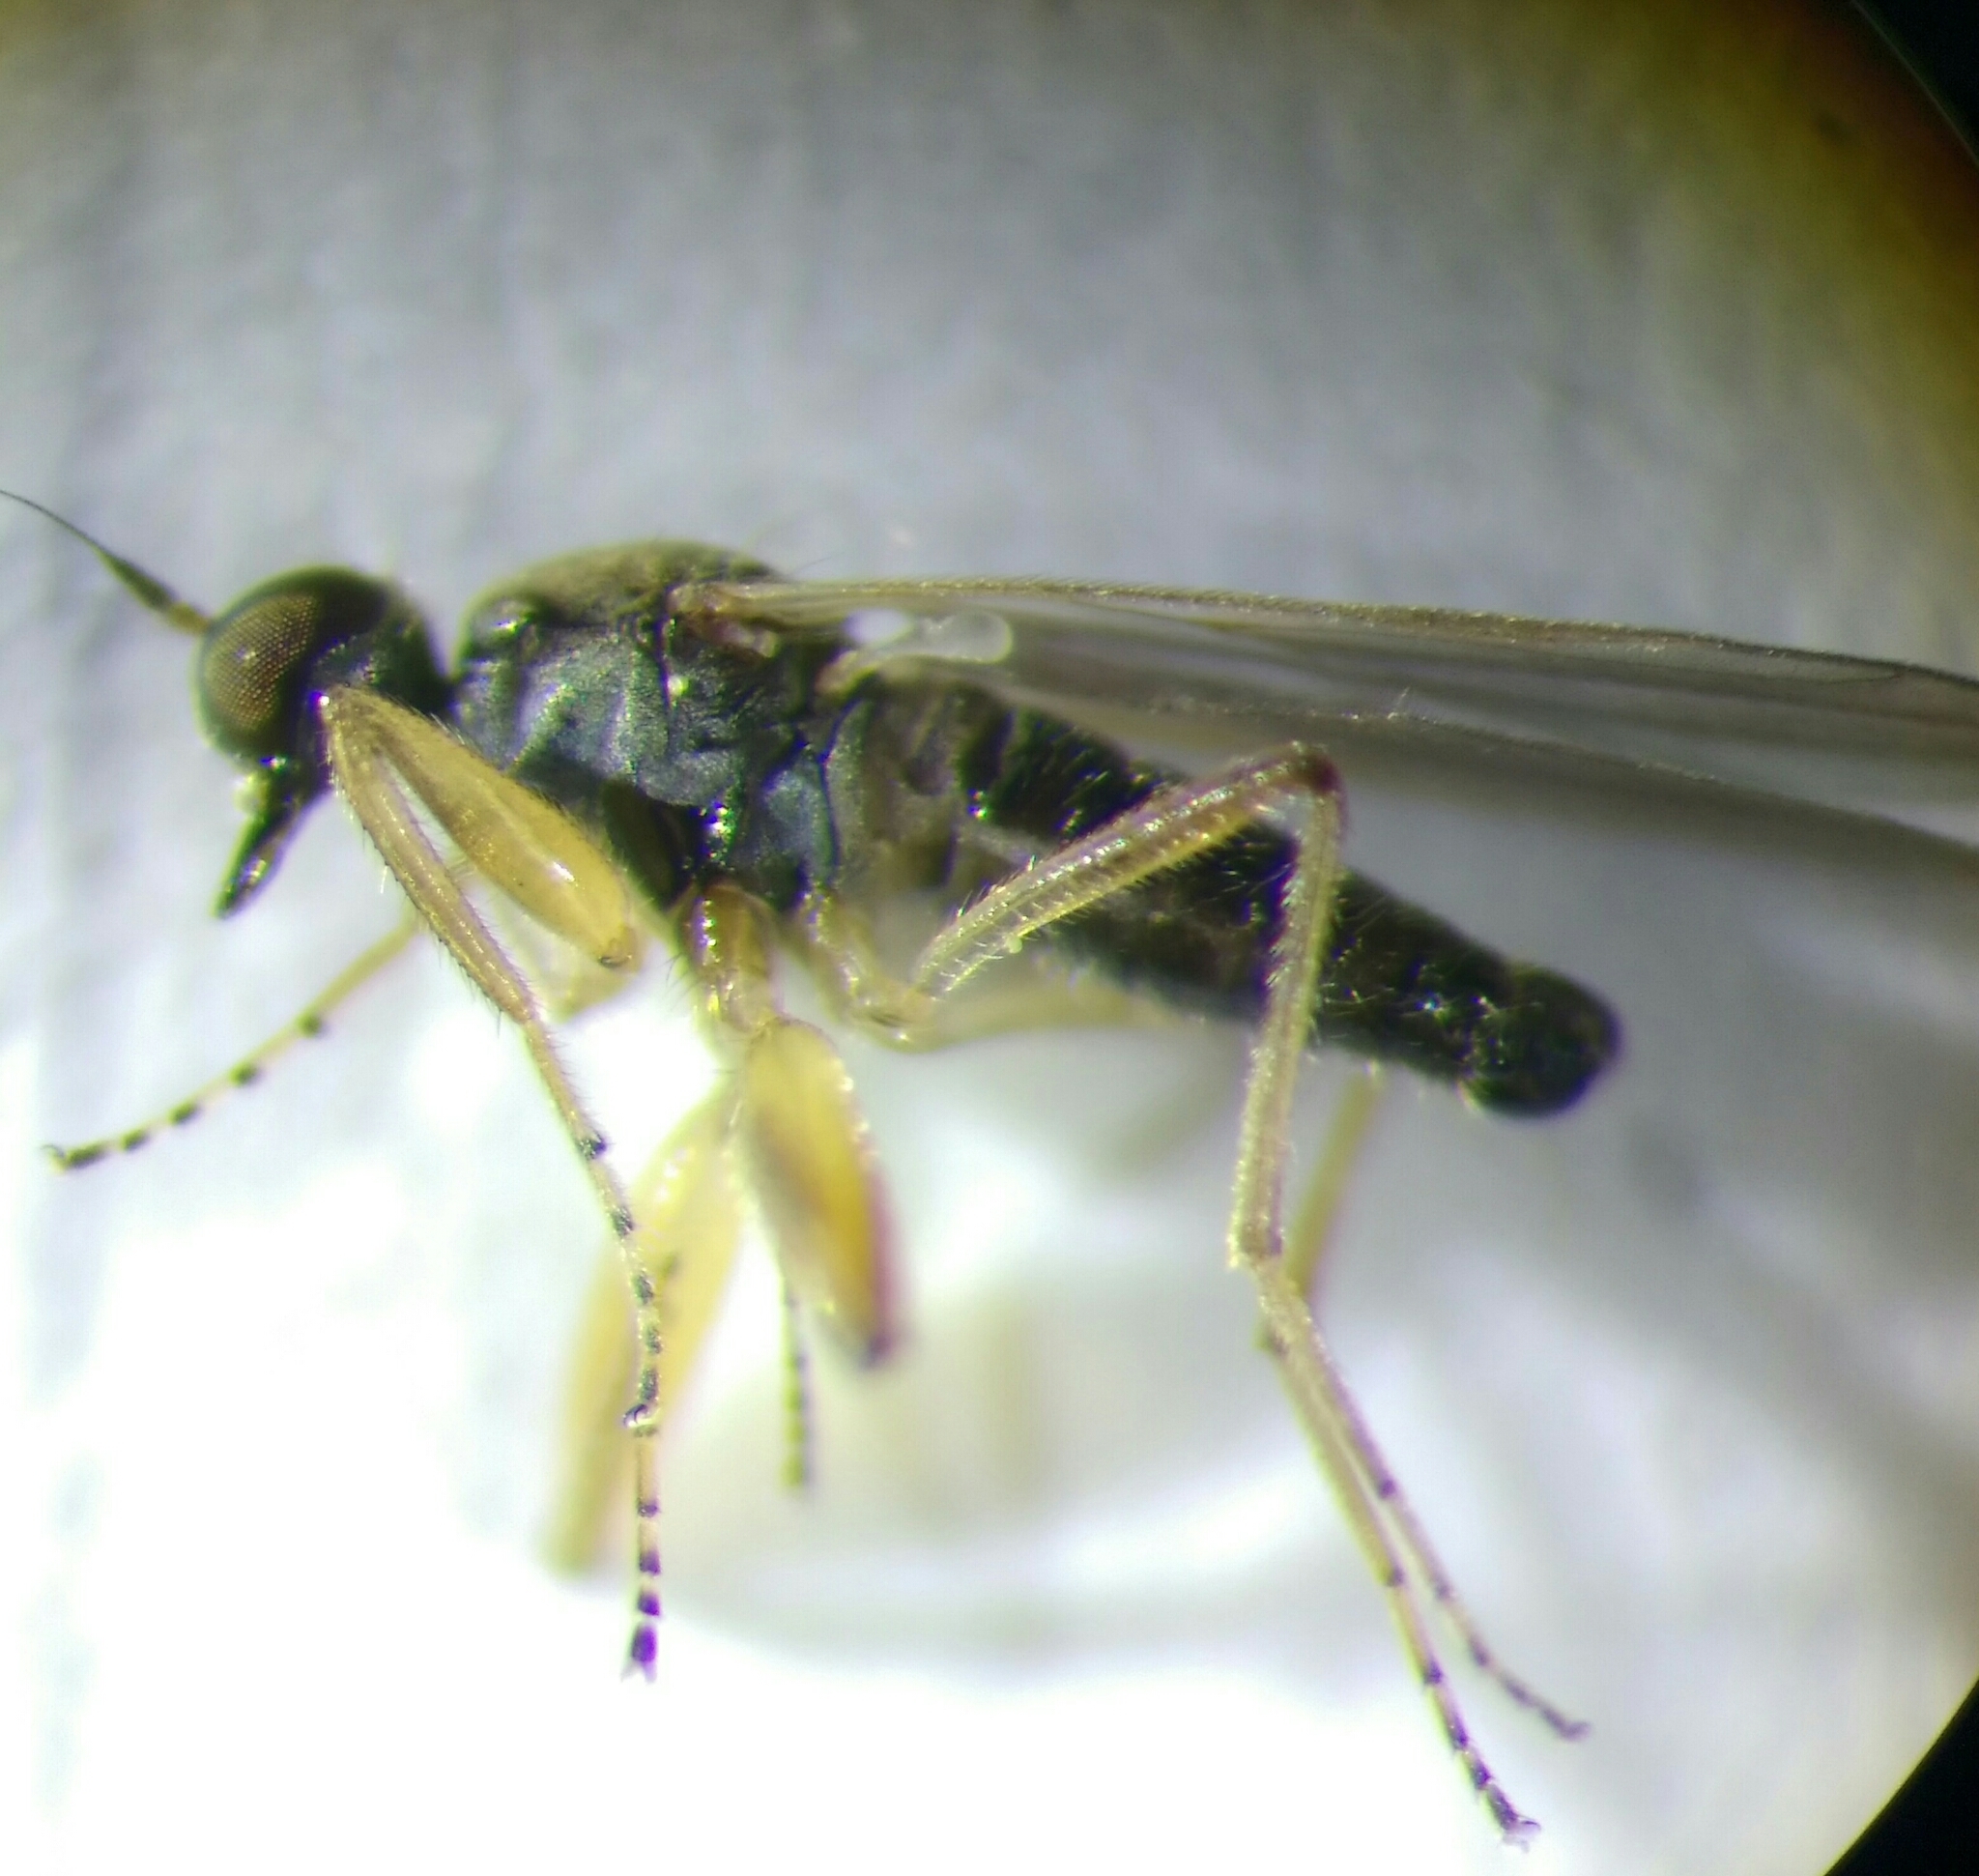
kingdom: Animalia
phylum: Arthropoda
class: Insecta
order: Diptera
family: Hybotidae
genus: Platypalpus
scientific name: Platypalpus
